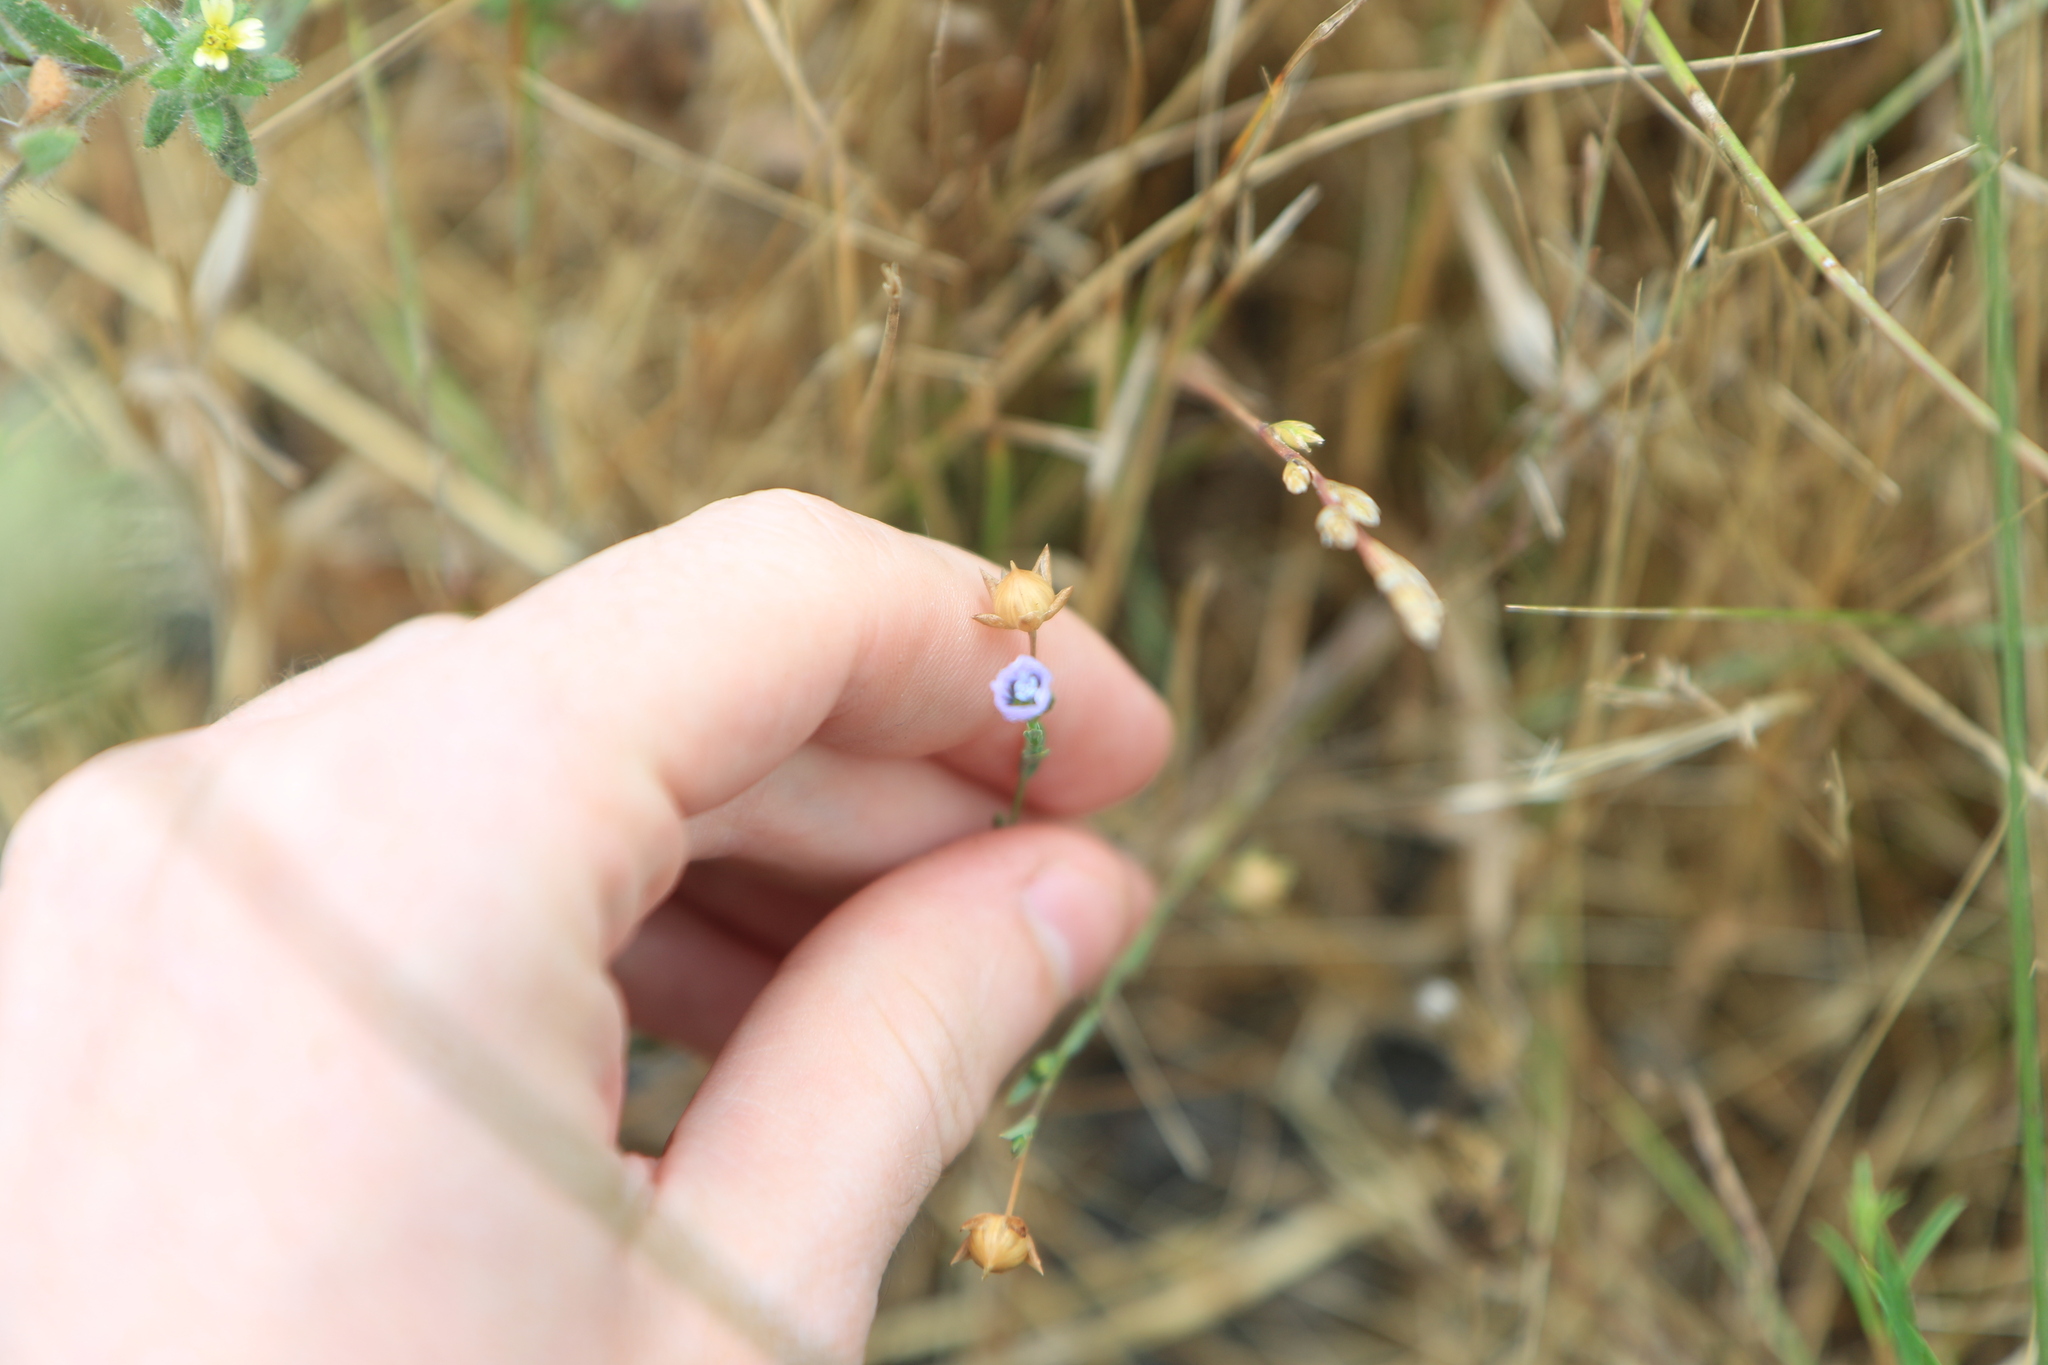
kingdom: Plantae
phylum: Tracheophyta
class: Magnoliopsida
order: Malpighiales
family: Linaceae
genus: Linum
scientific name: Linum bienne
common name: Pale flax
